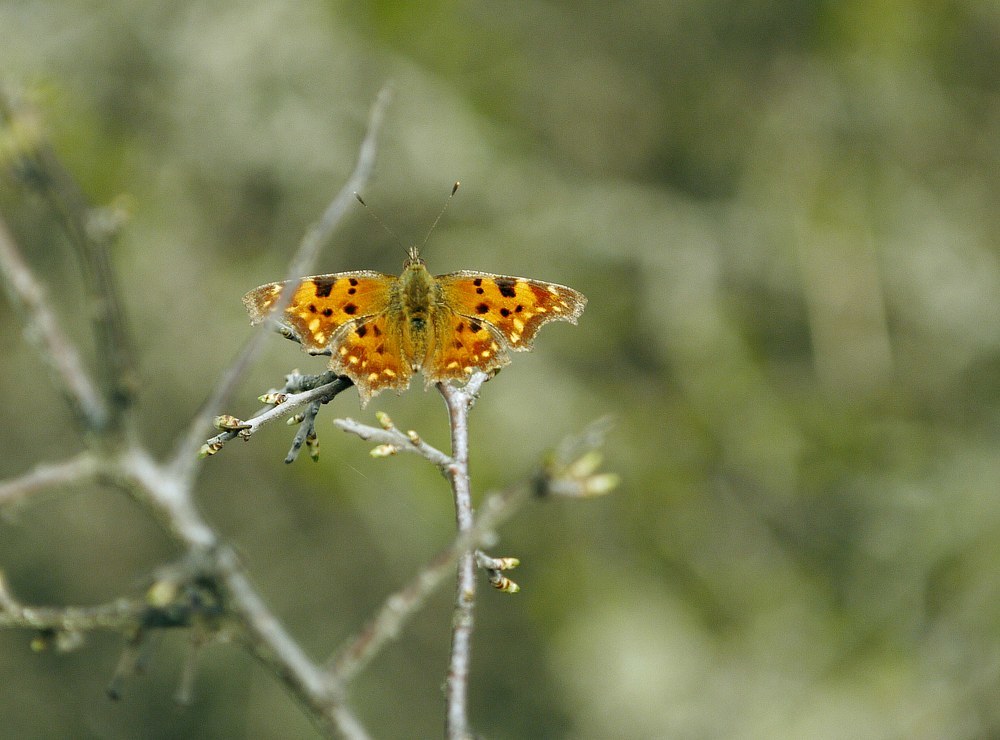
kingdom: Animalia
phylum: Arthropoda
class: Insecta
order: Lepidoptera
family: Nymphalidae
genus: Polygonia
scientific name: Polygonia c-album
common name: Comma
